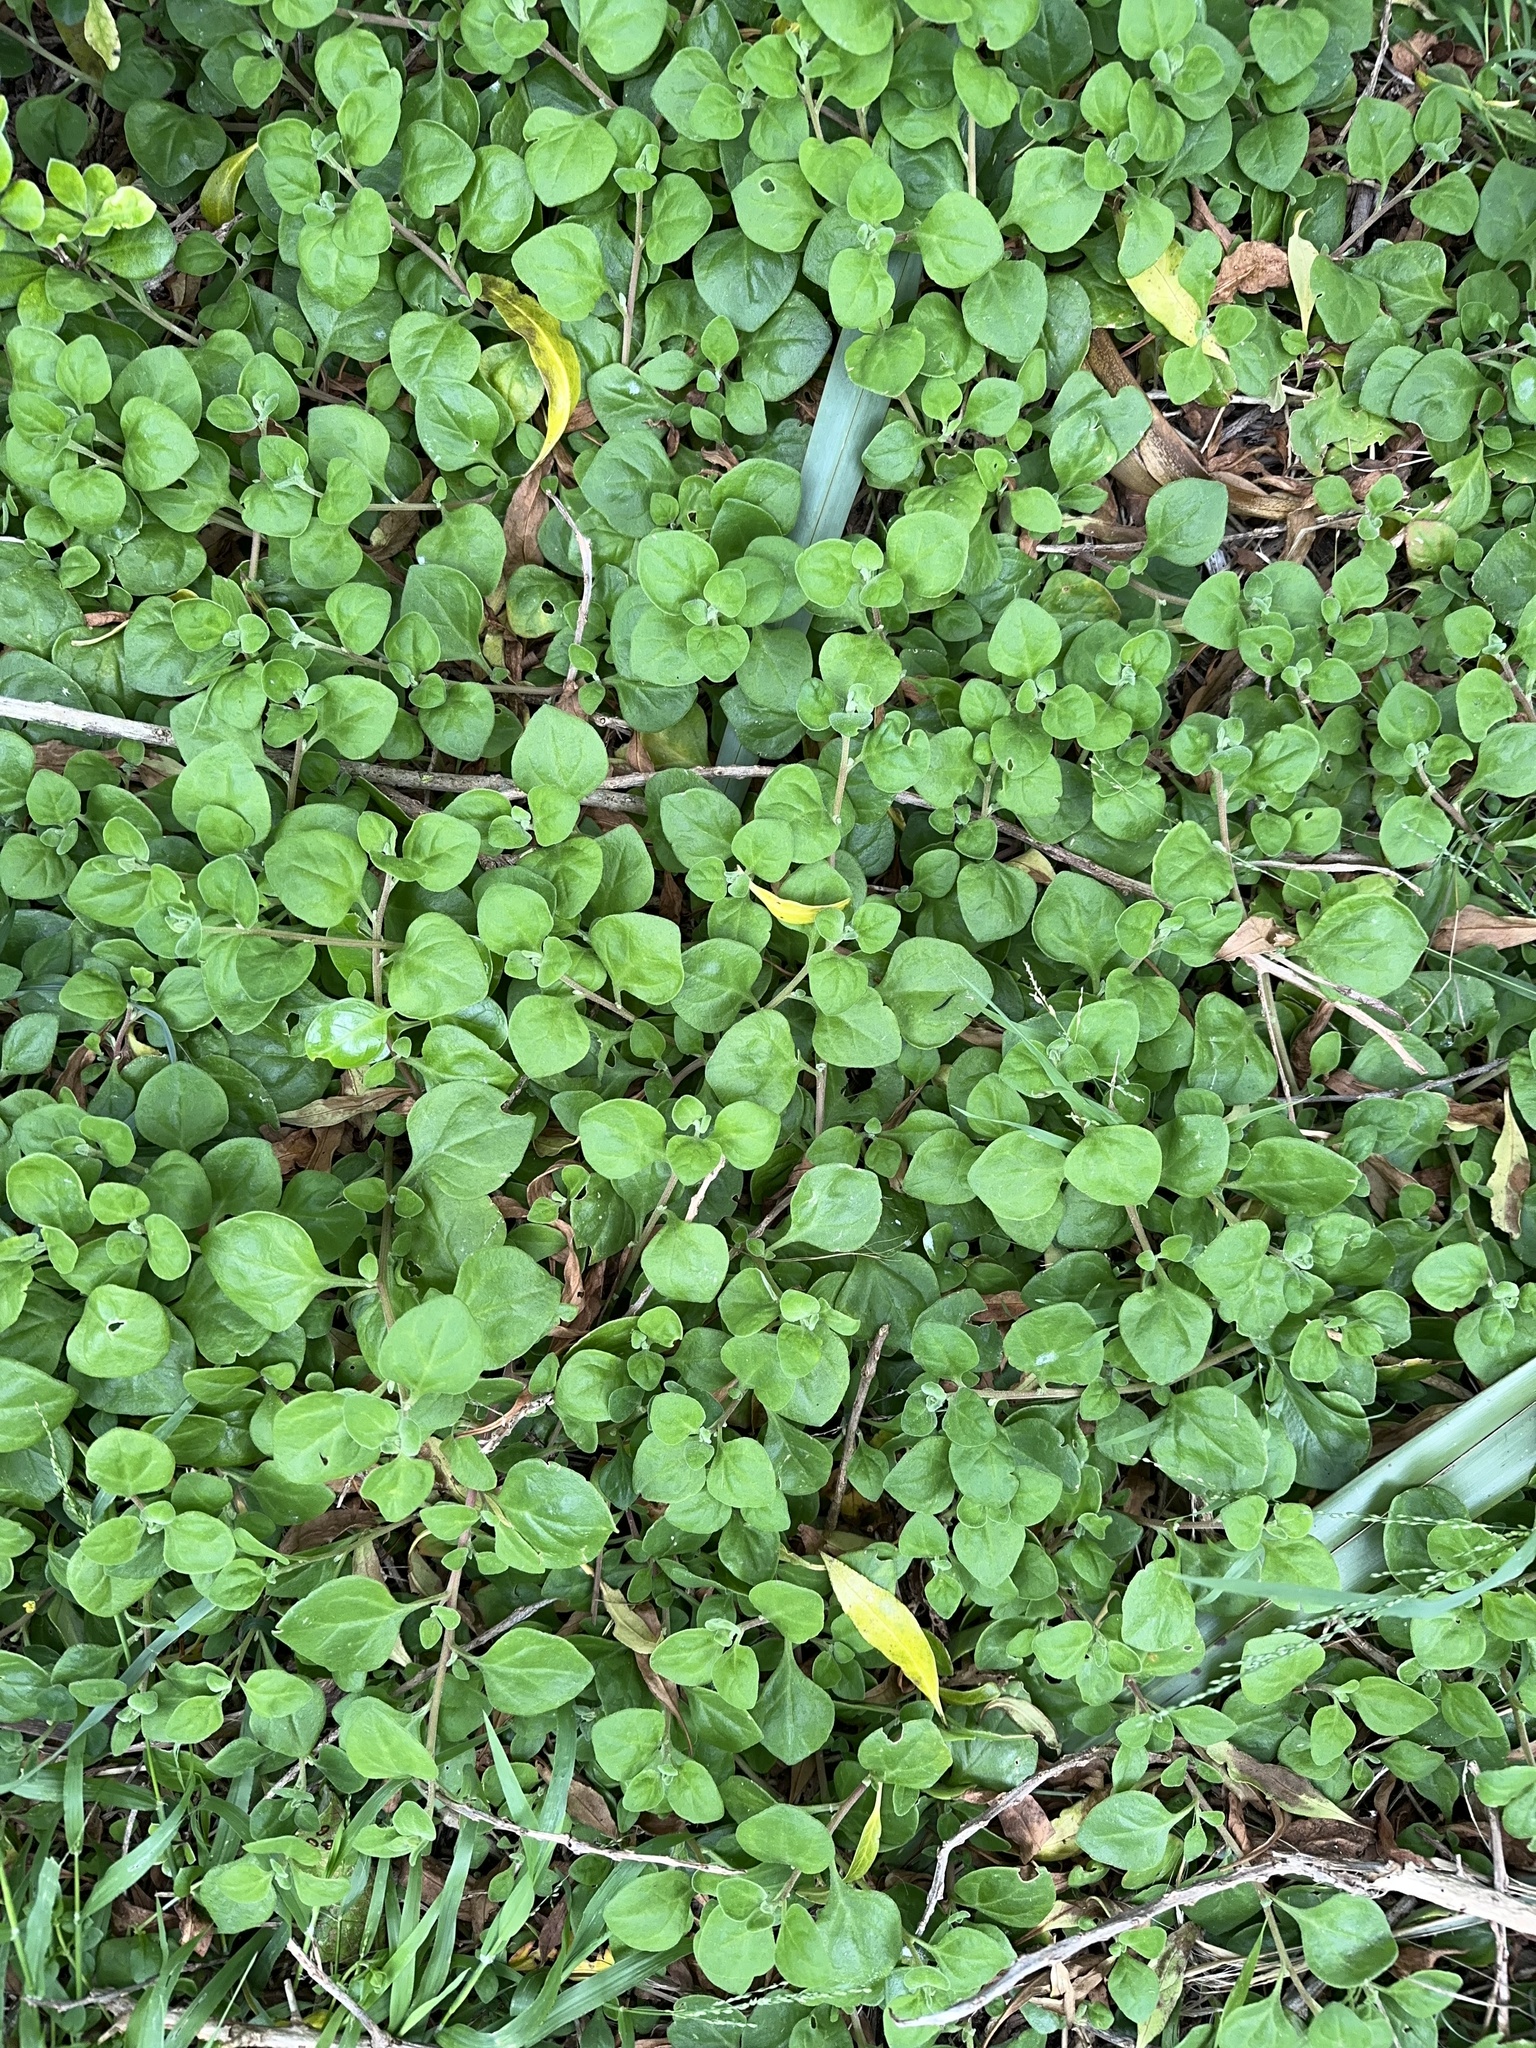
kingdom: Plantae
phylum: Tracheophyta
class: Magnoliopsida
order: Caryophyllales
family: Aizoaceae
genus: Tetragonia
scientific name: Tetragonia implexicoma
